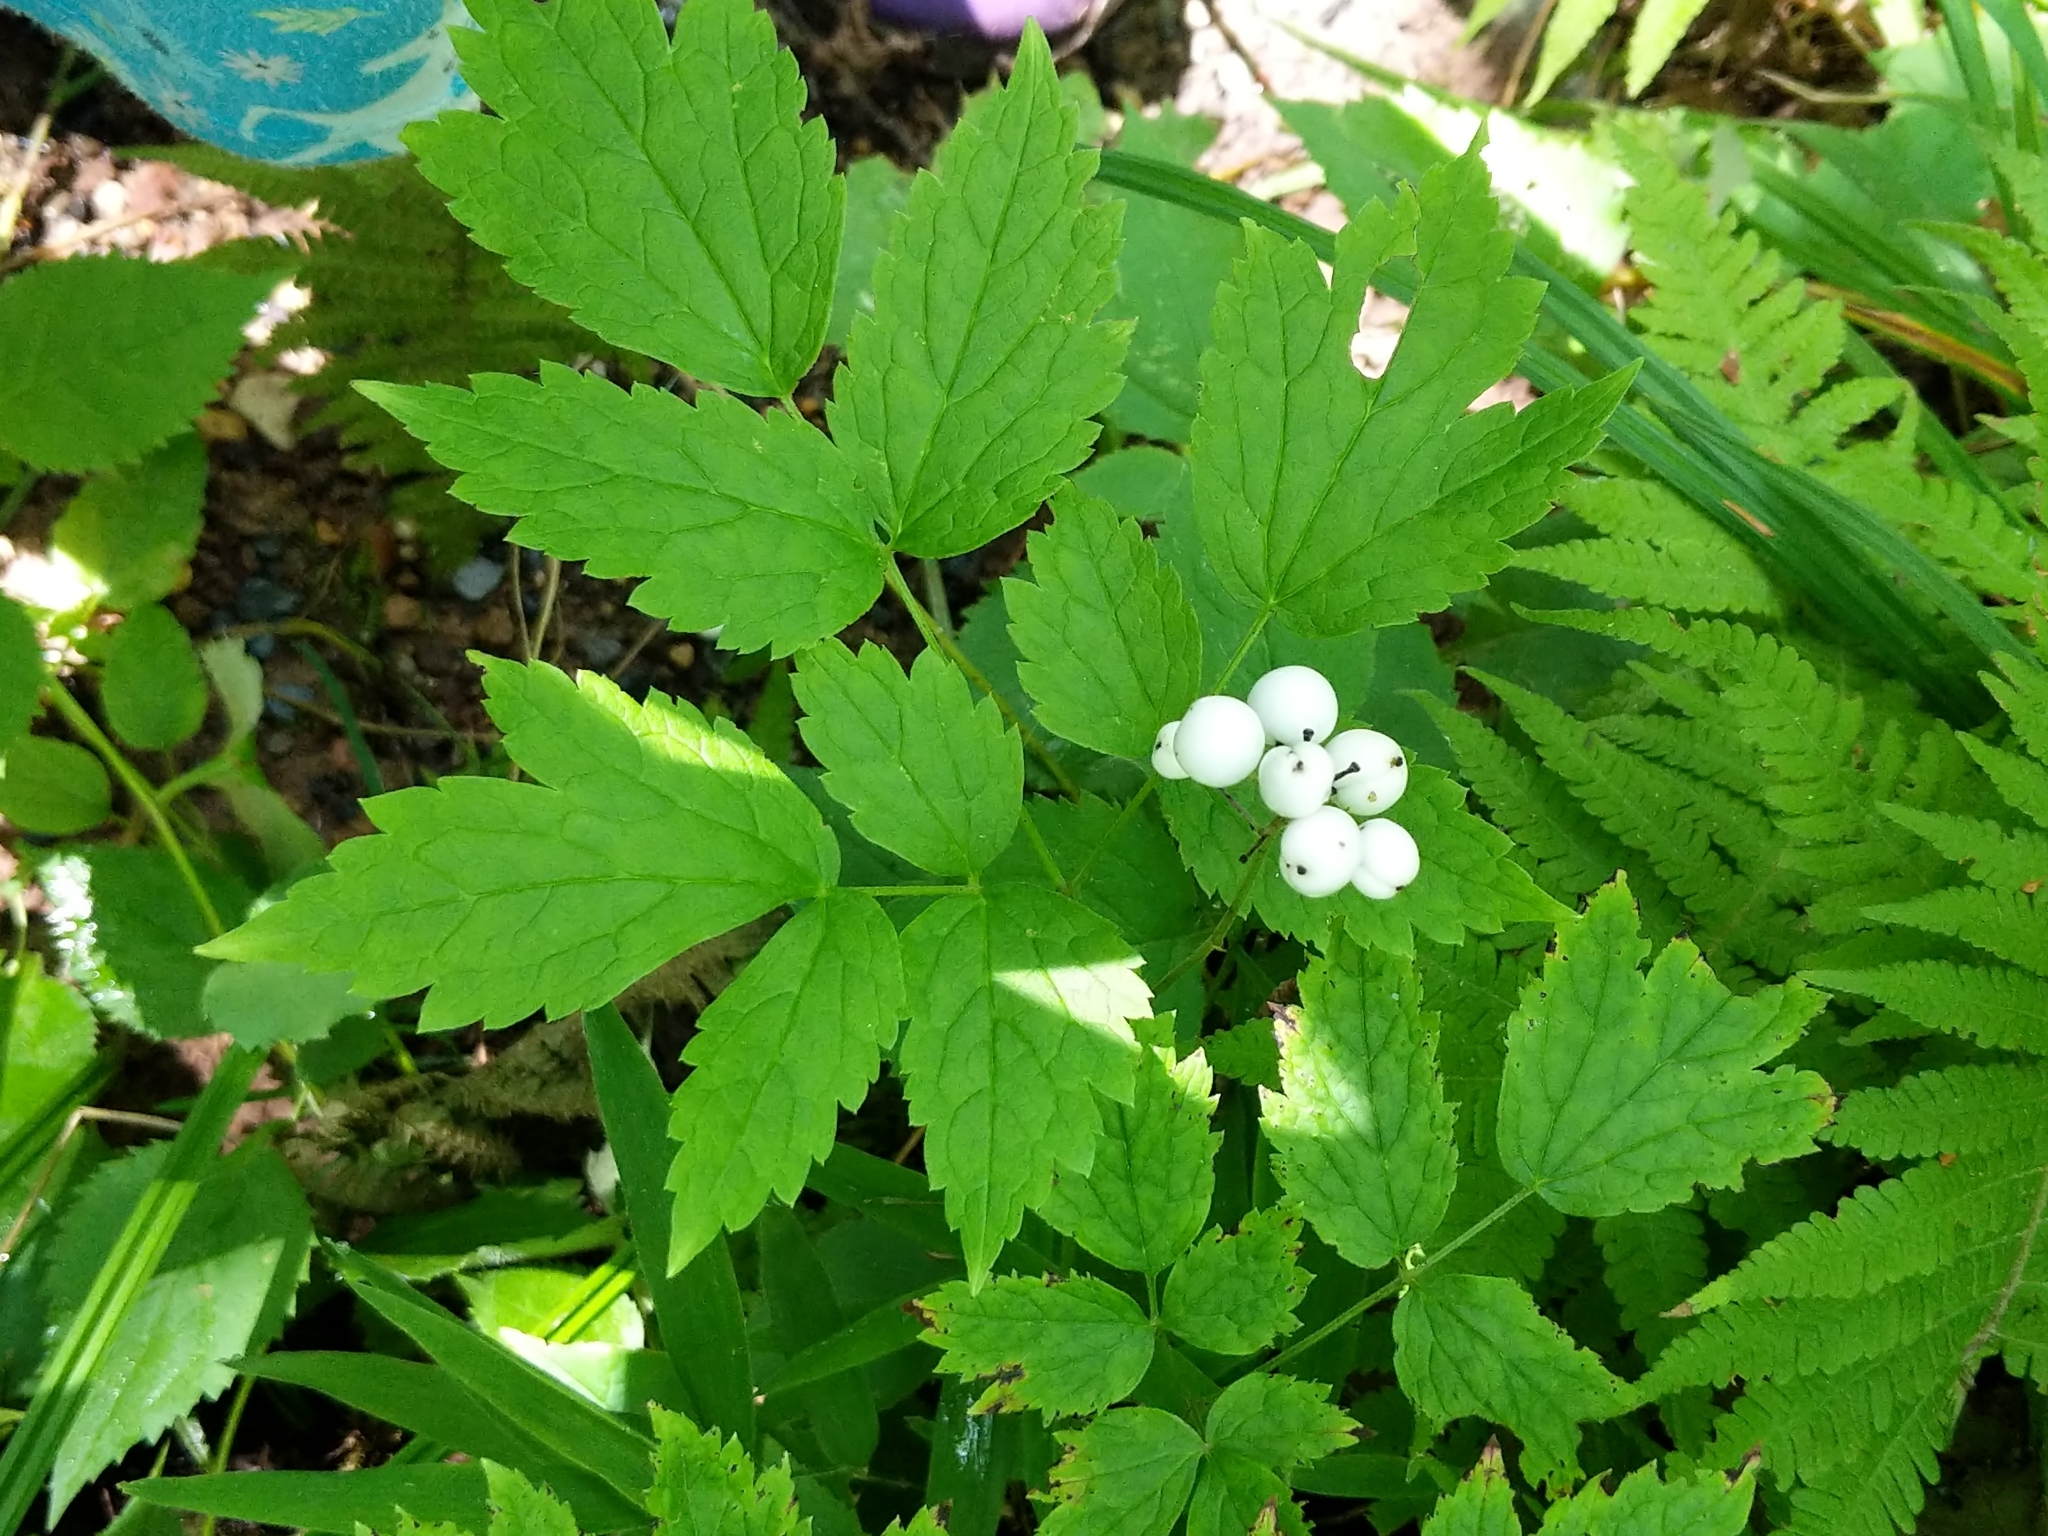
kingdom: Plantae
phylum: Tracheophyta
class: Magnoliopsida
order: Ranunculales
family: Ranunculaceae
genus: Actaea
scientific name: Actaea rubra
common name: Red baneberry
